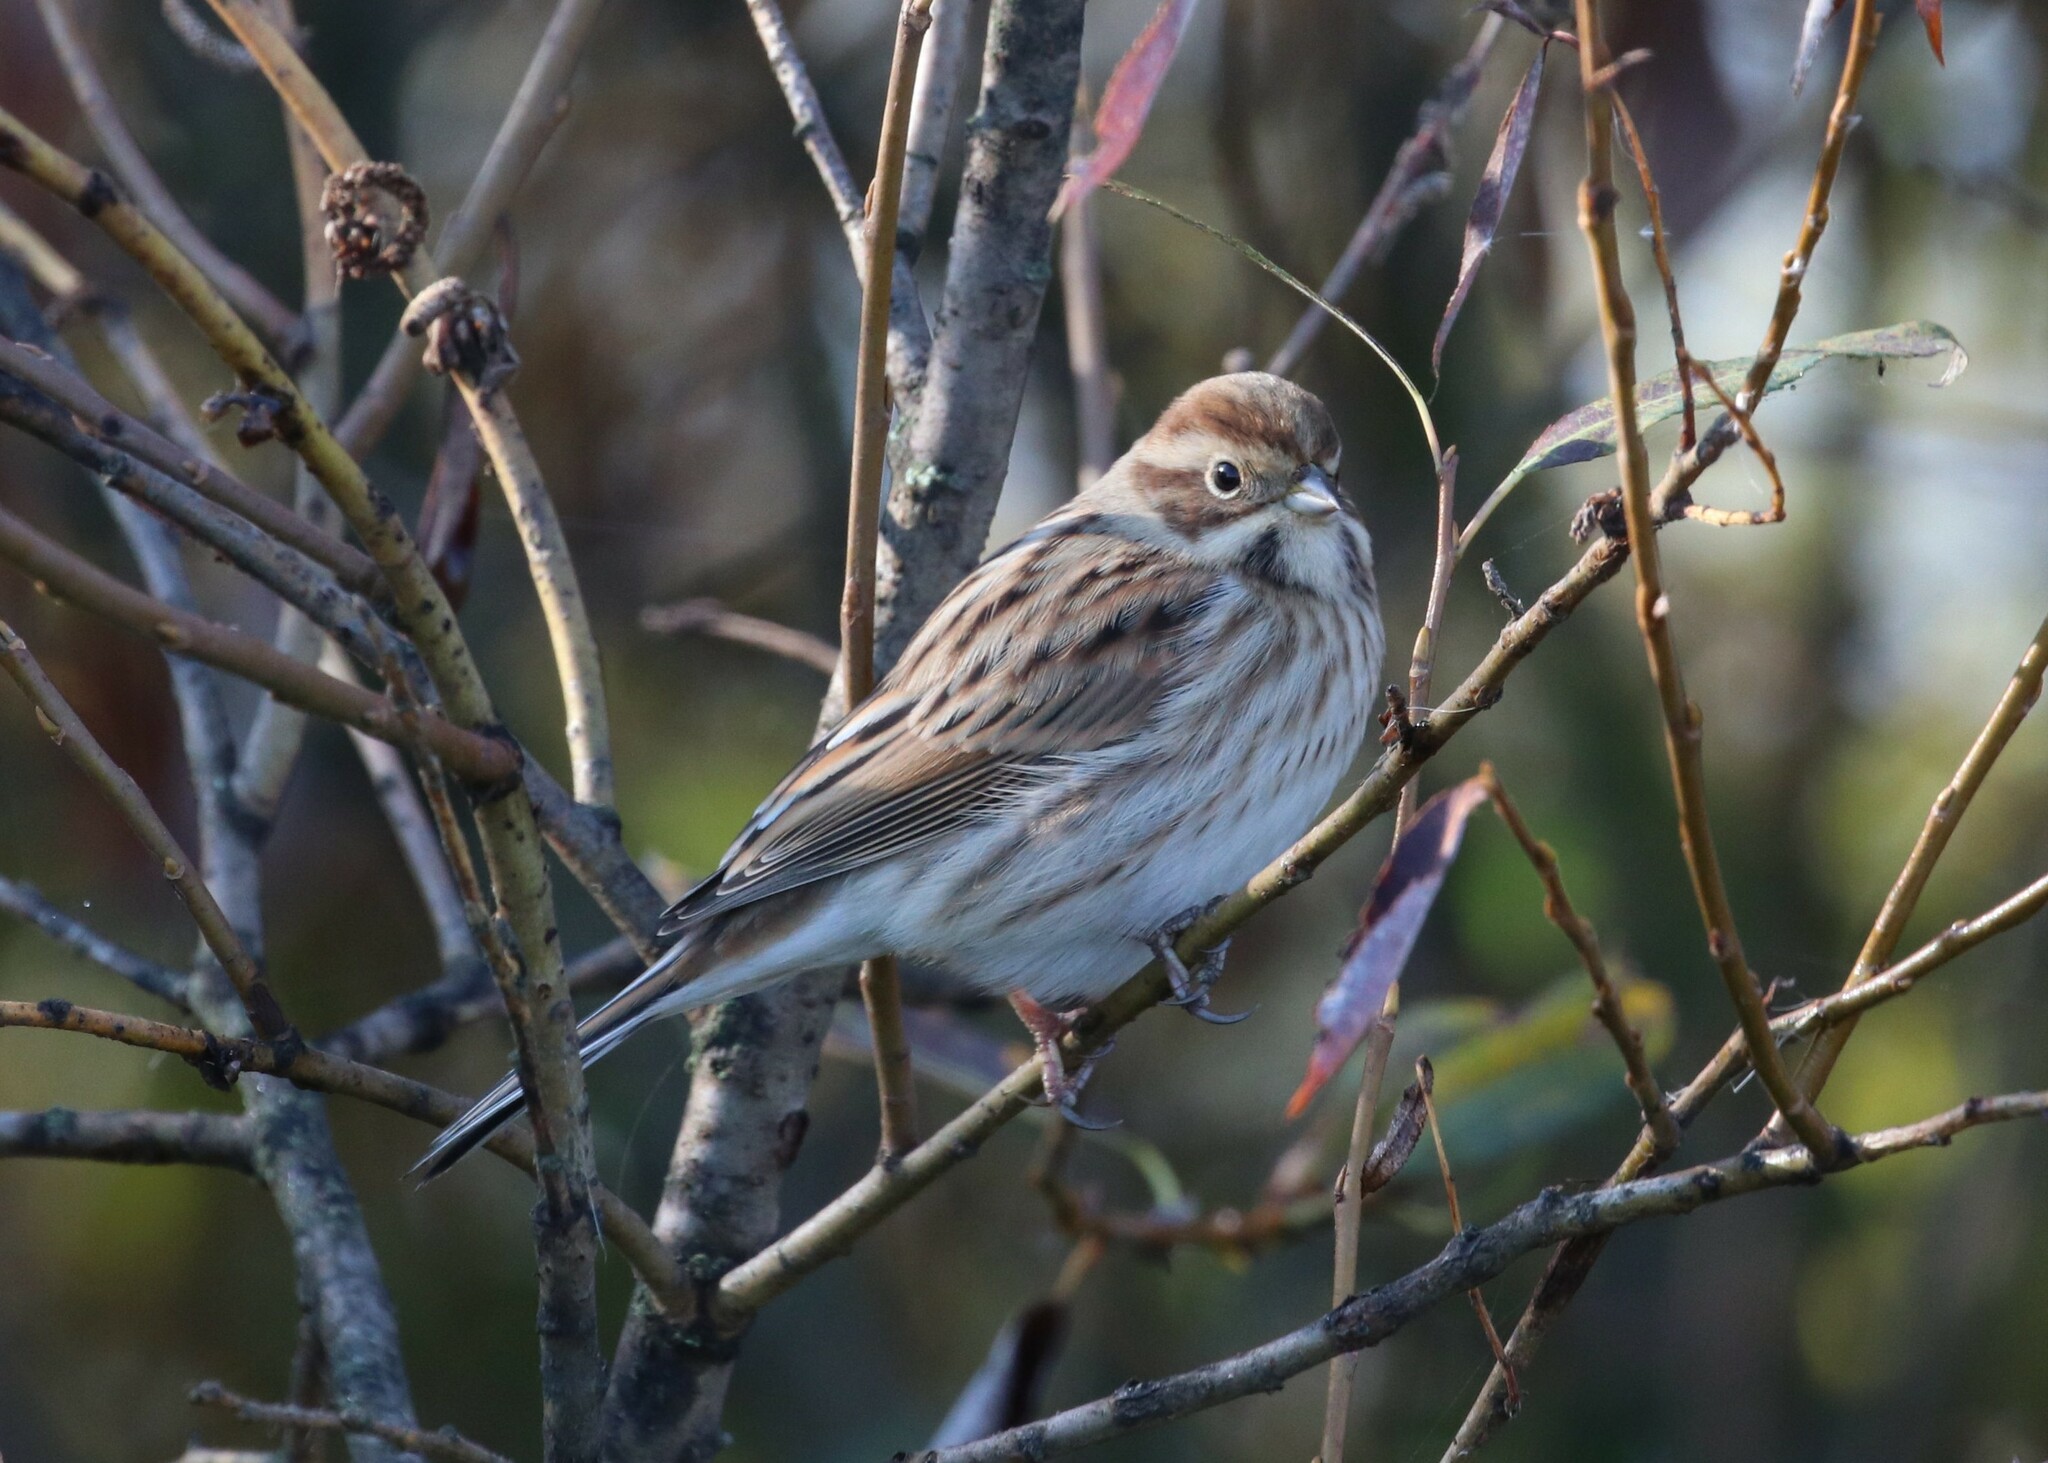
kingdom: Animalia
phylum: Chordata
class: Aves
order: Passeriformes
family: Emberizidae
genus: Emberiza
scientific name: Emberiza schoeniclus
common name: Reed bunting
